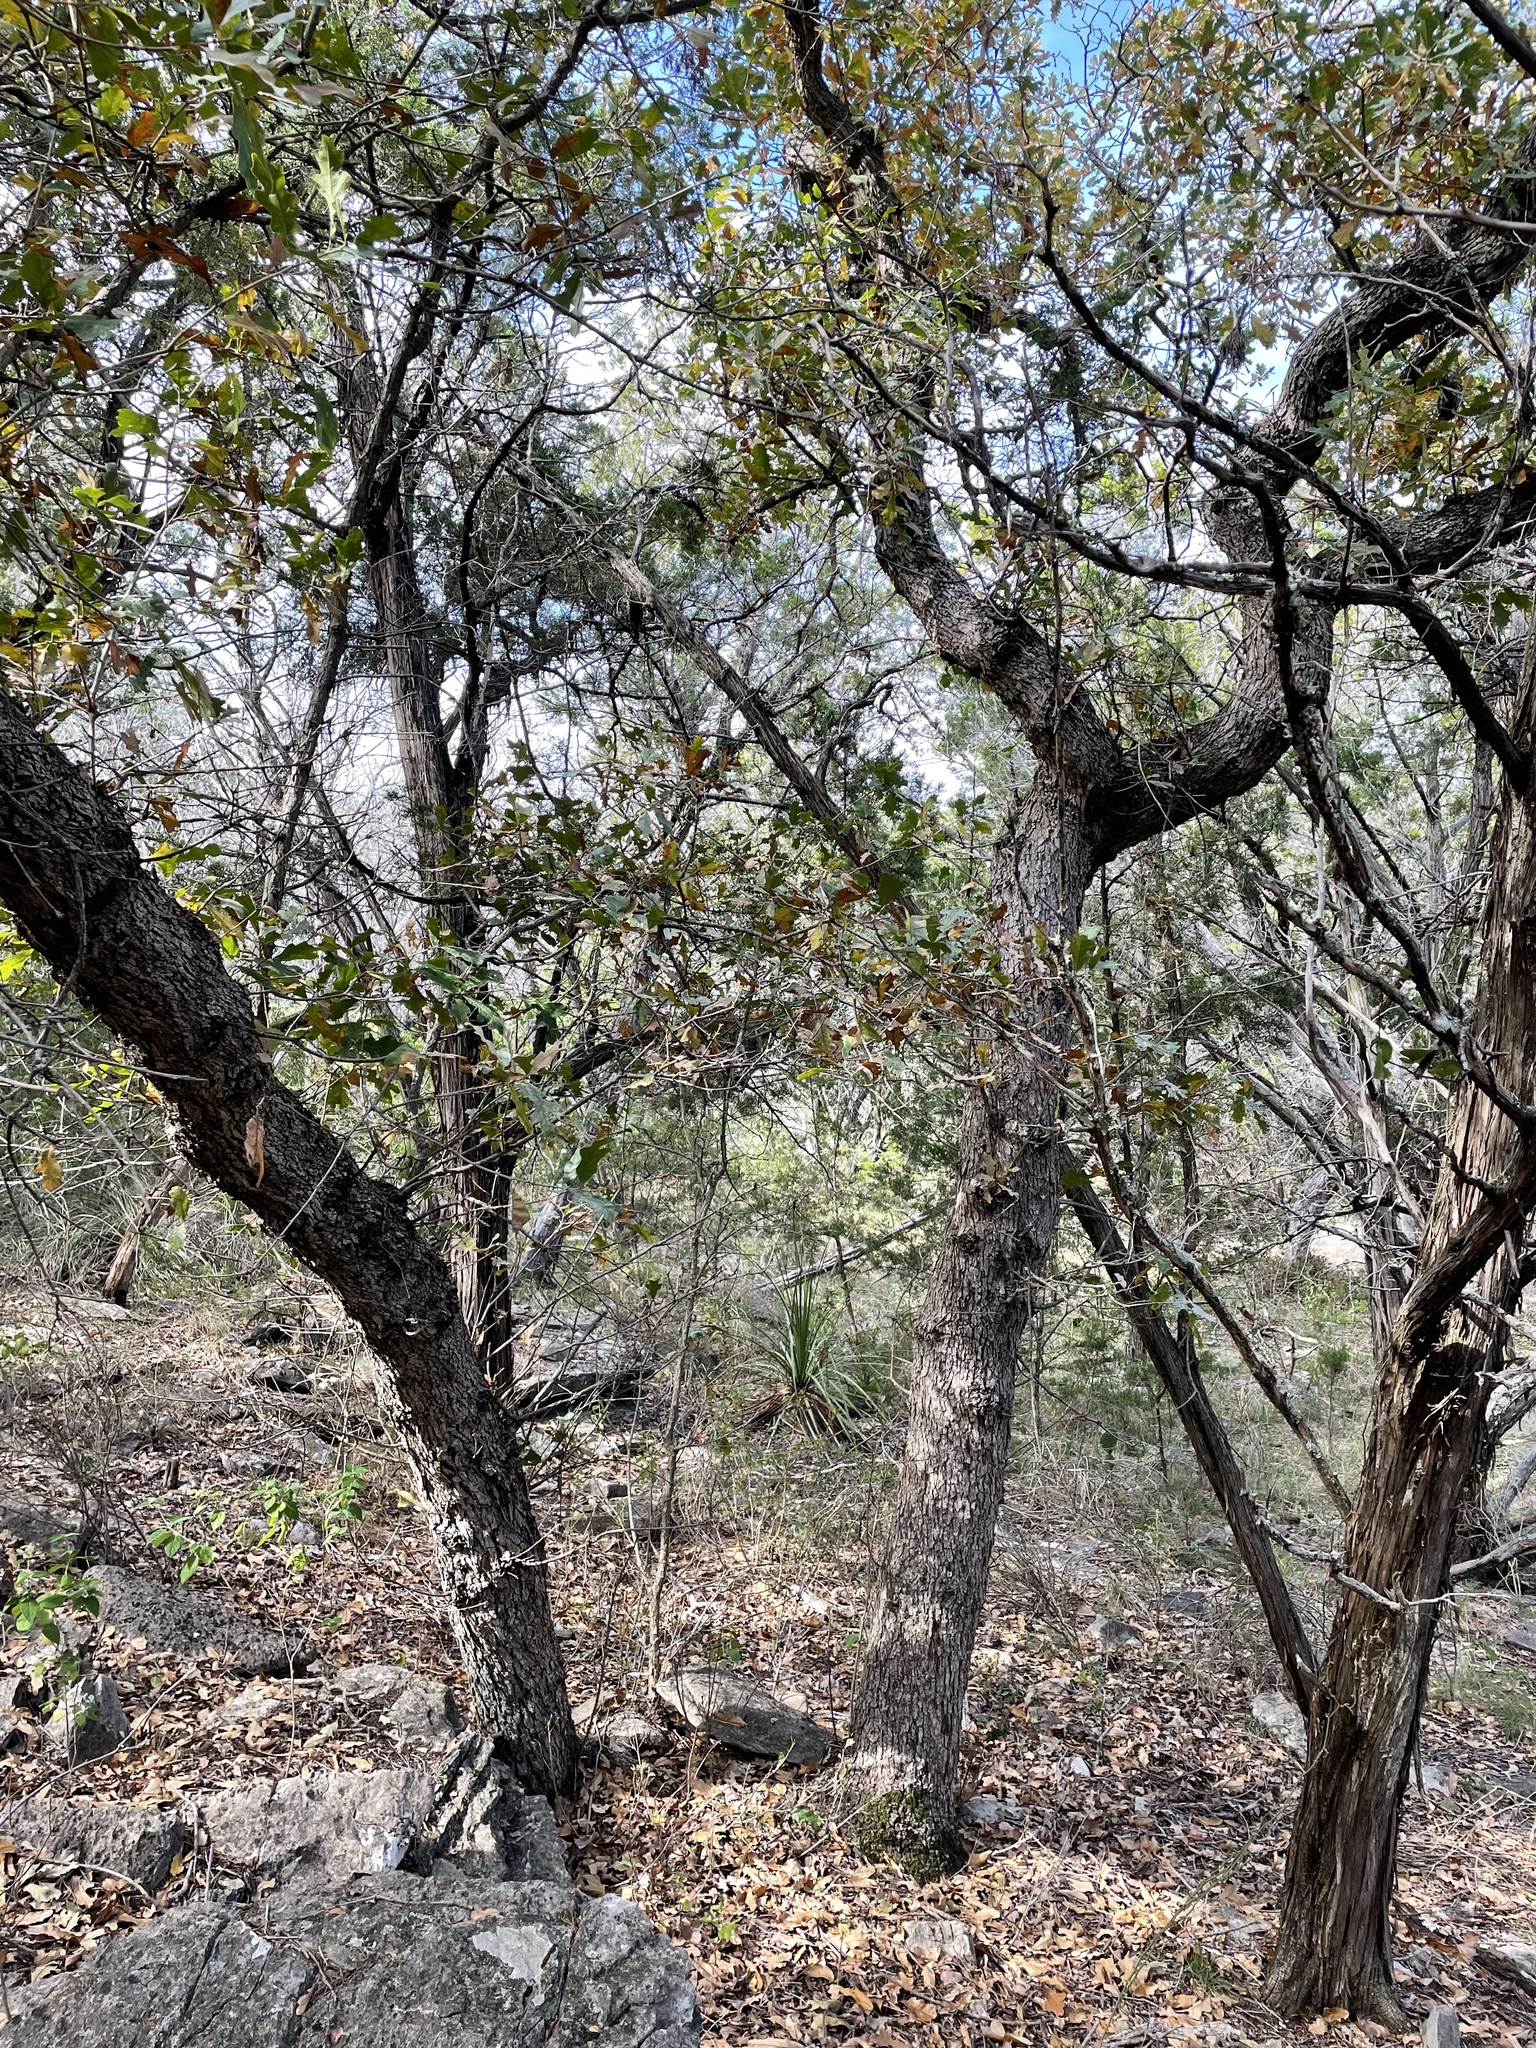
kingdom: Plantae
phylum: Tracheophyta
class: Magnoliopsida
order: Fagales
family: Fagaceae
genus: Quercus
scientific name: Quercus sinuata
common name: Durand oak
